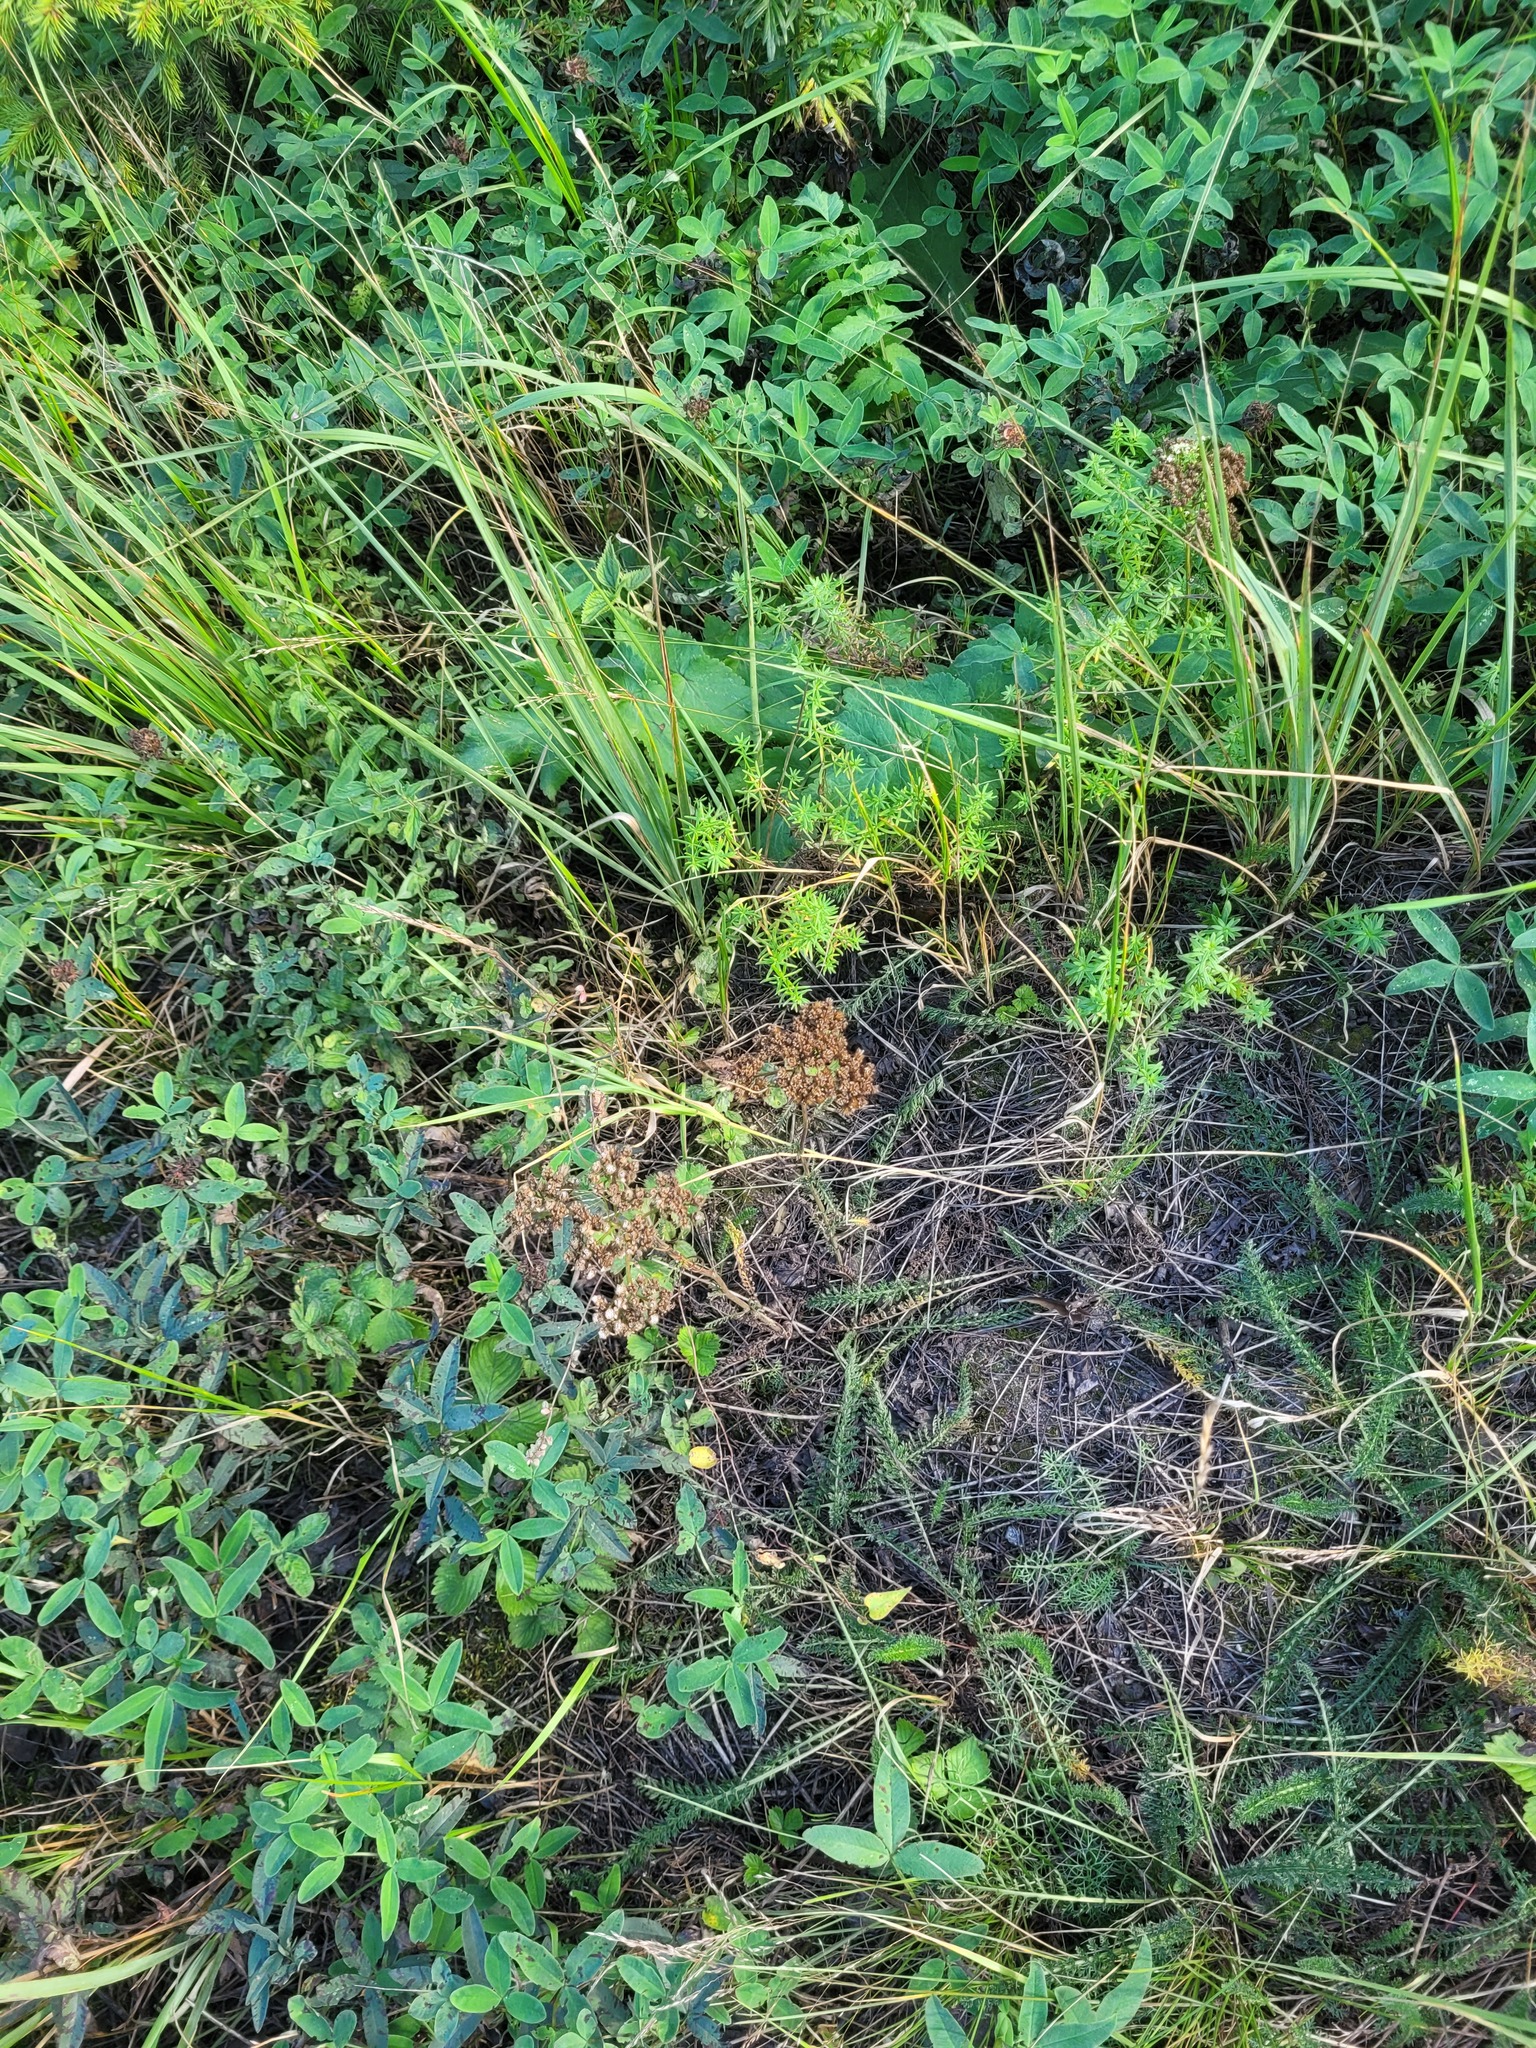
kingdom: Plantae
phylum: Tracheophyta
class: Magnoliopsida
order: Asterales
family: Asteraceae
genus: Achillea
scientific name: Achillea millefolium
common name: Yarrow
